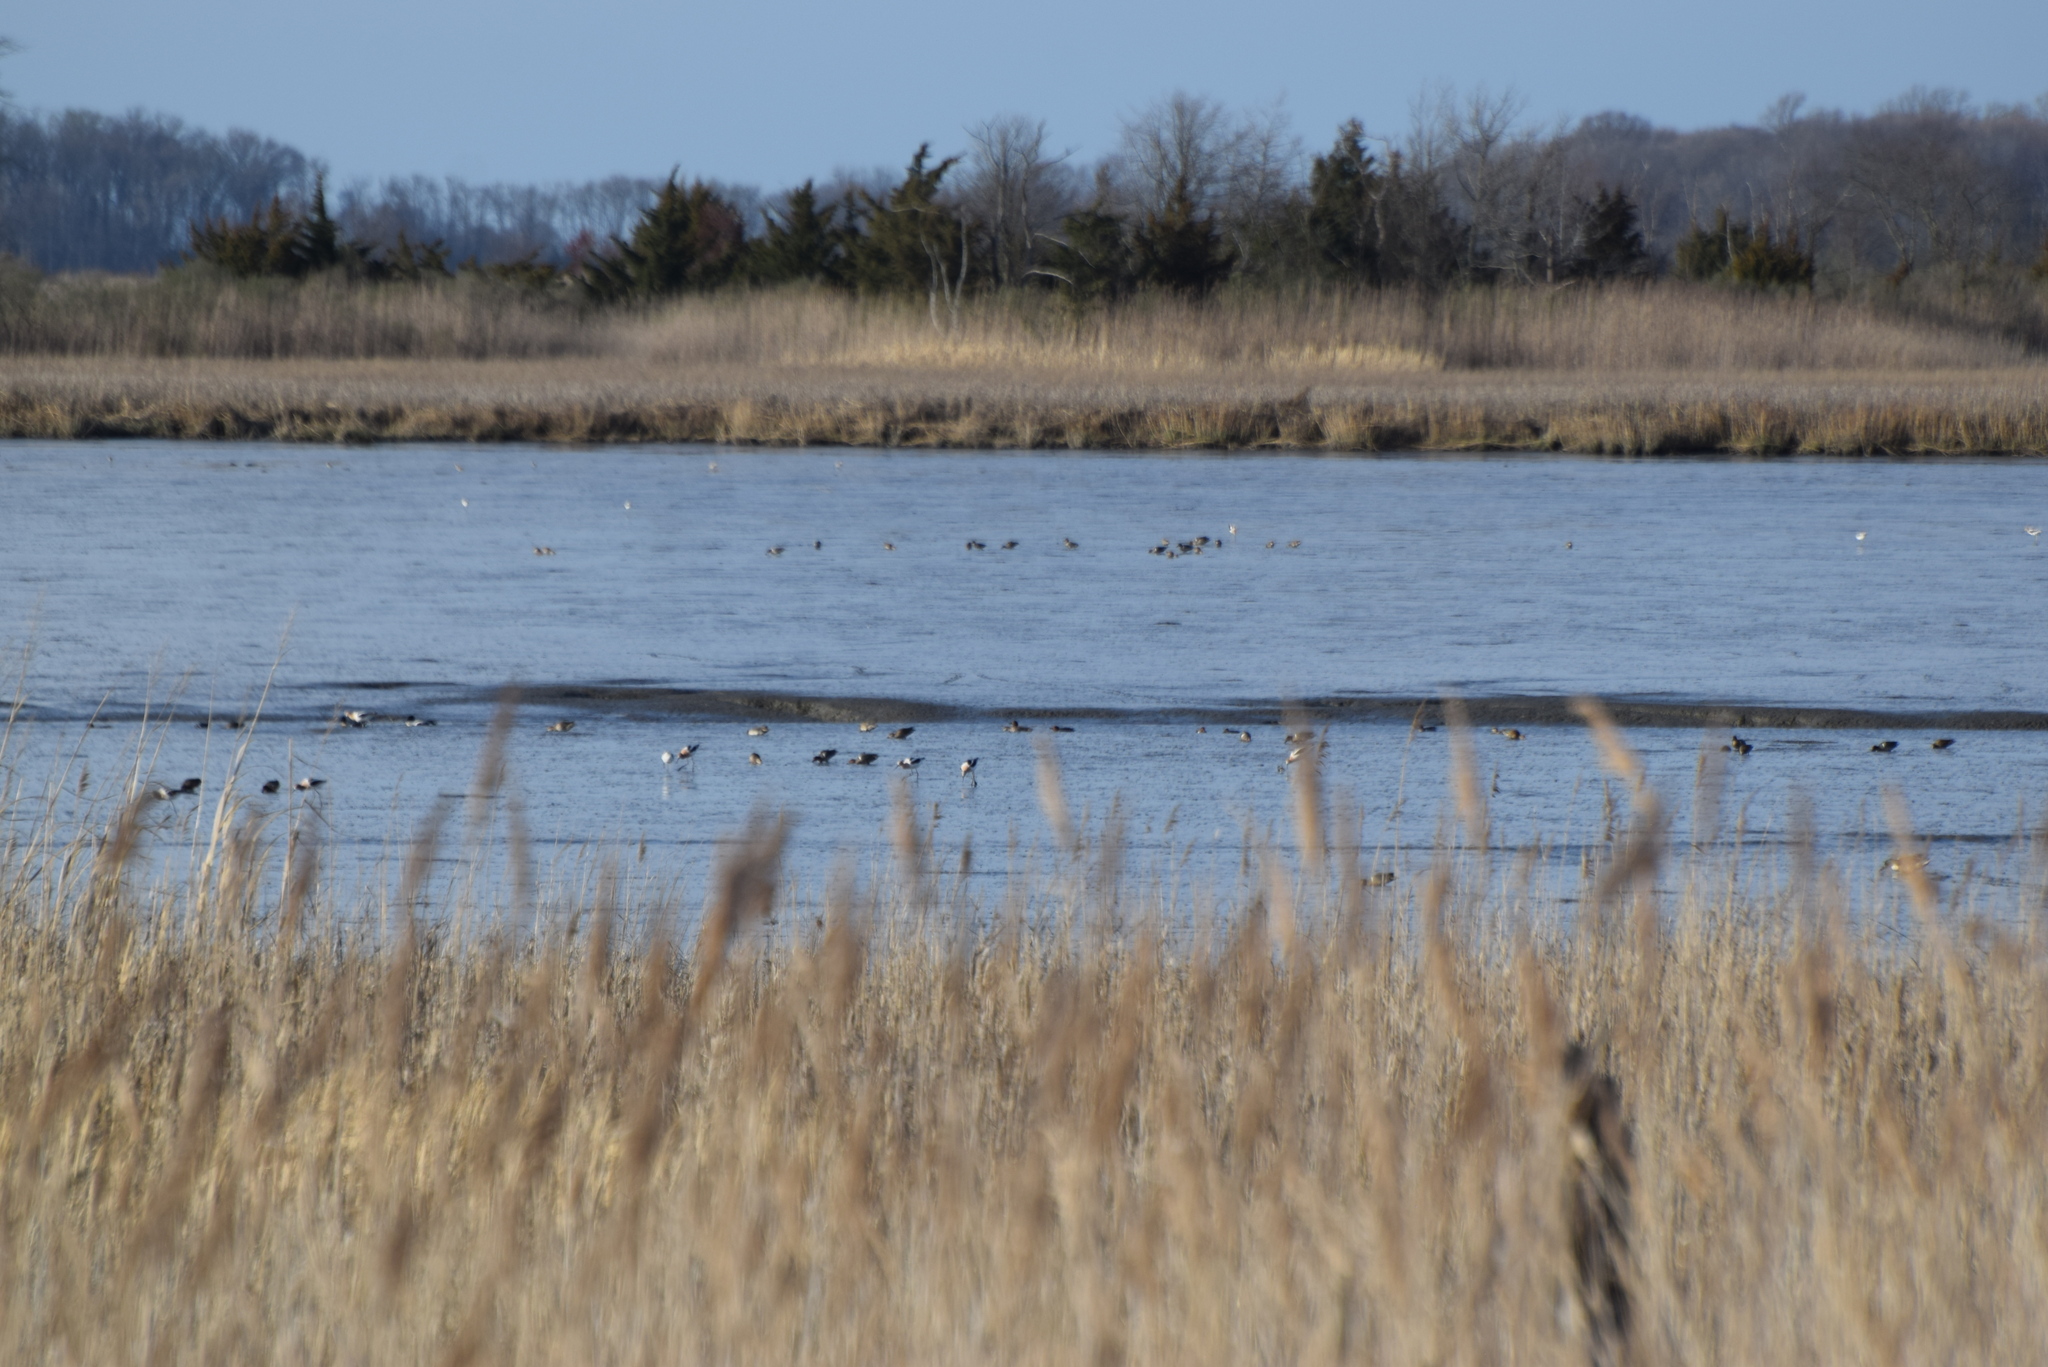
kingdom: Animalia
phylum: Chordata
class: Aves
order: Anseriformes
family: Anatidae
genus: Anas
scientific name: Anas crecca
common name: Eurasian teal
